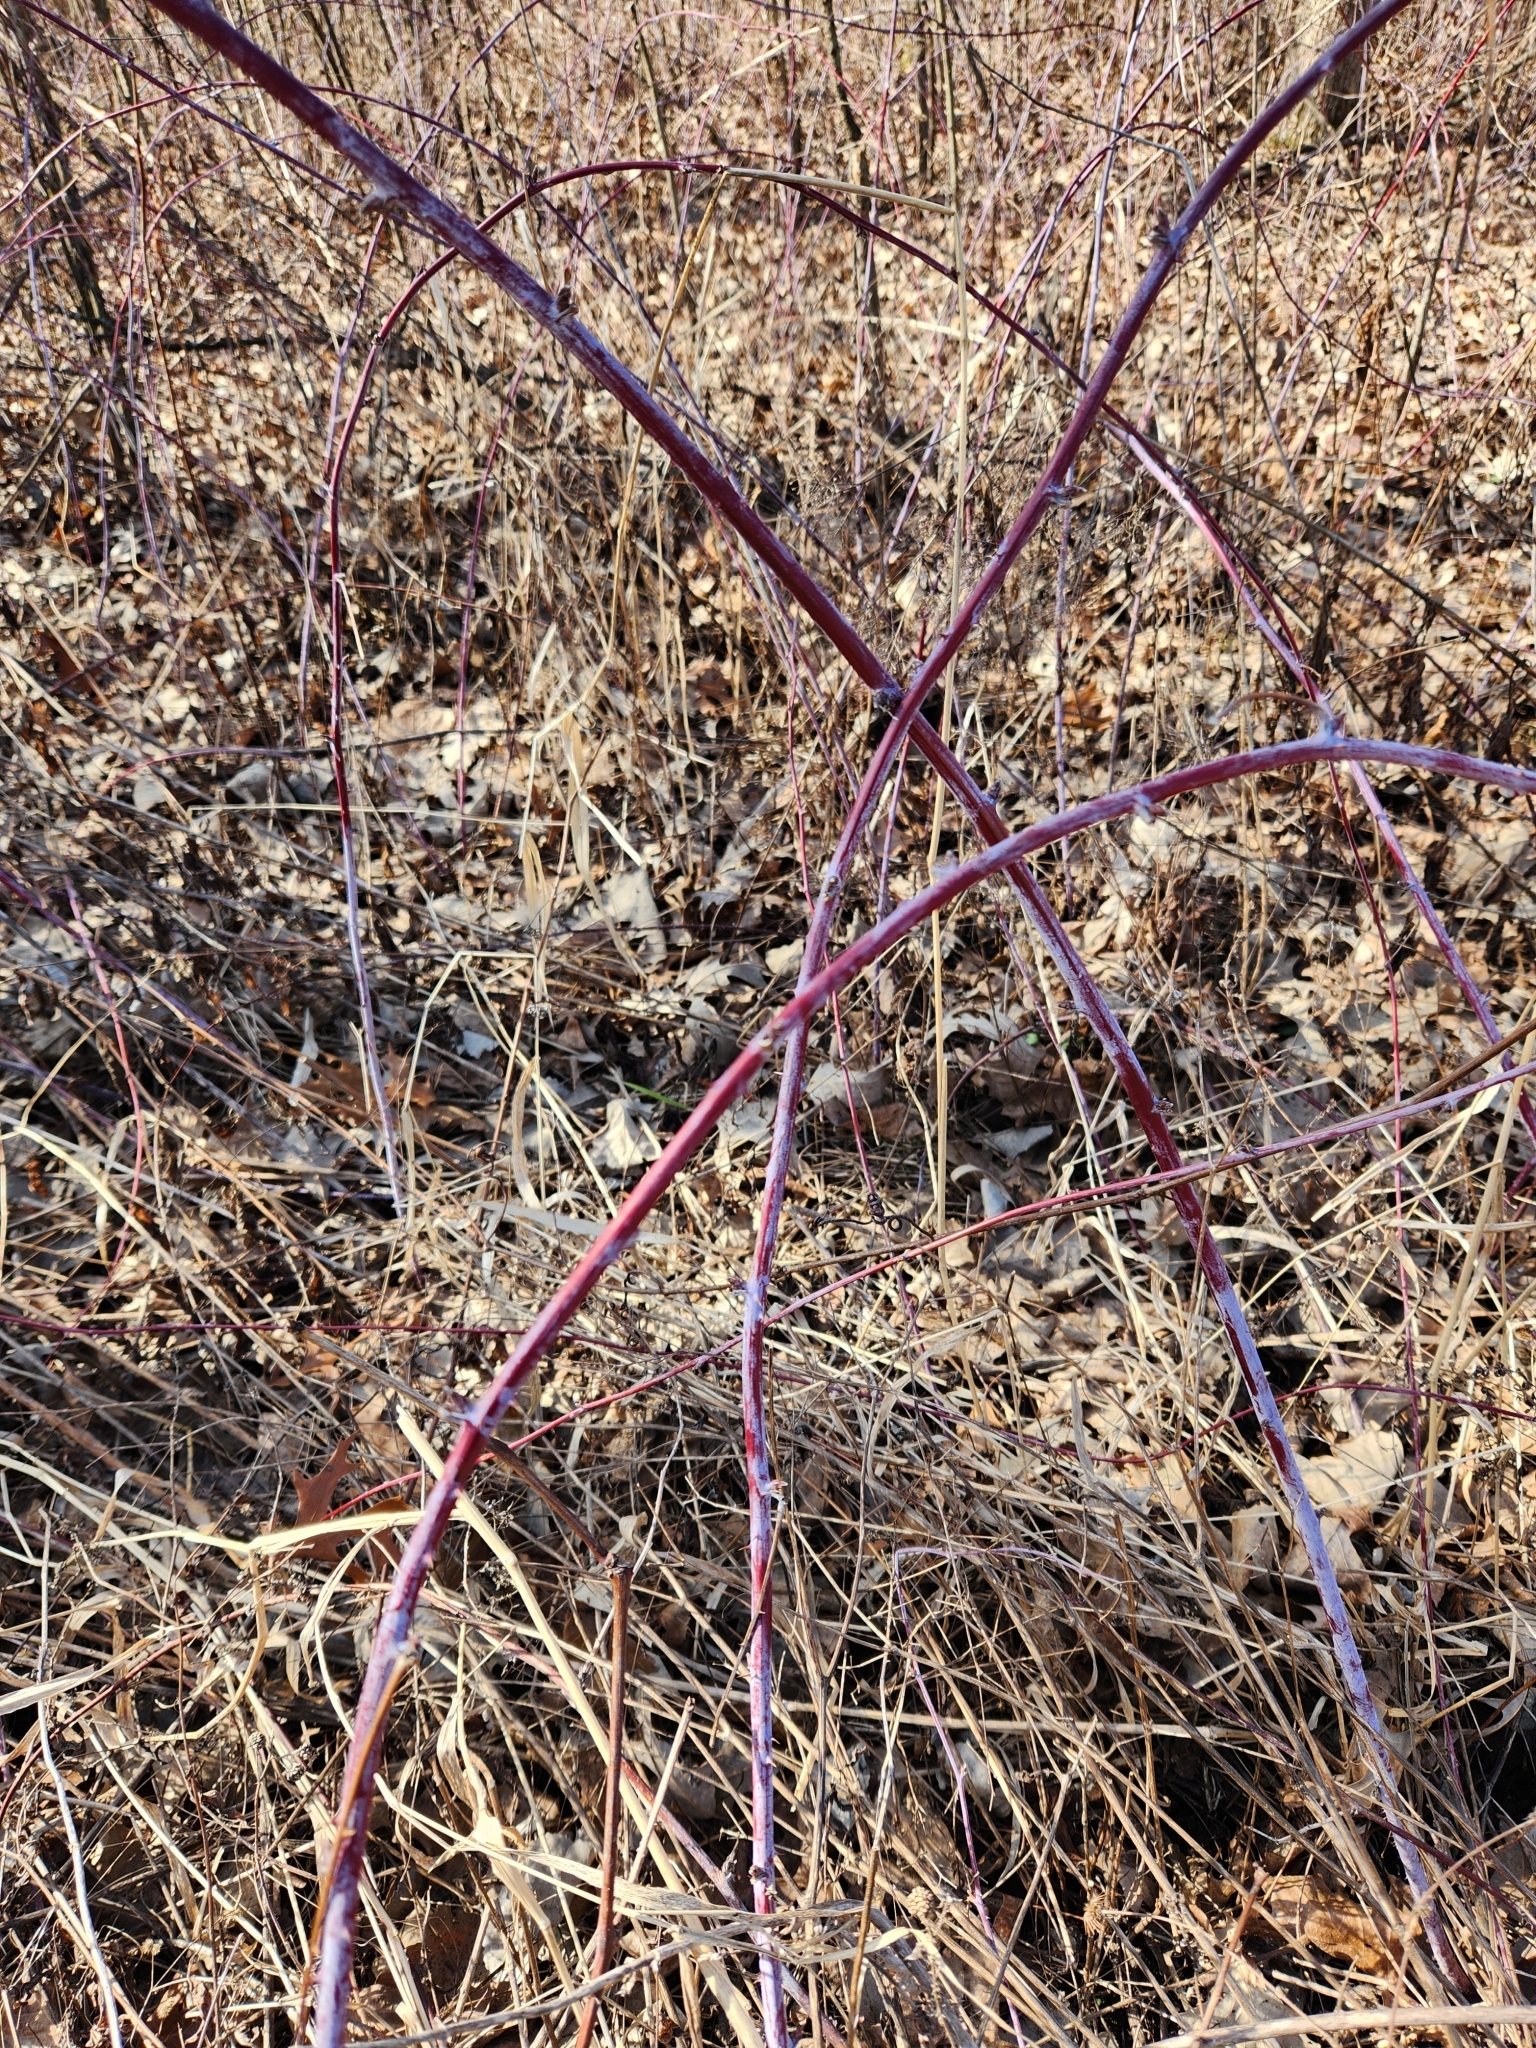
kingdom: Plantae
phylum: Tracheophyta
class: Magnoliopsida
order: Rosales
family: Rosaceae
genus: Rubus
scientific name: Rubus occidentalis
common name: Black raspberry
